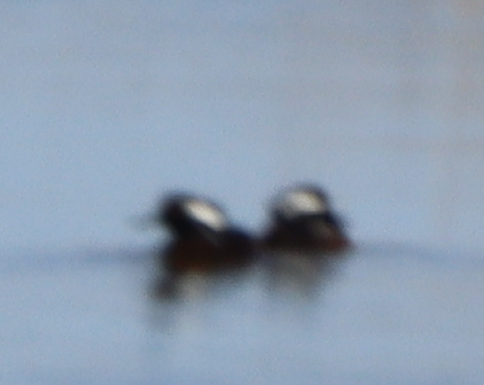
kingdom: Animalia
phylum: Chordata
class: Aves
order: Anseriformes
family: Anatidae
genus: Lophodytes
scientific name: Lophodytes cucullatus
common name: Hooded merganser
